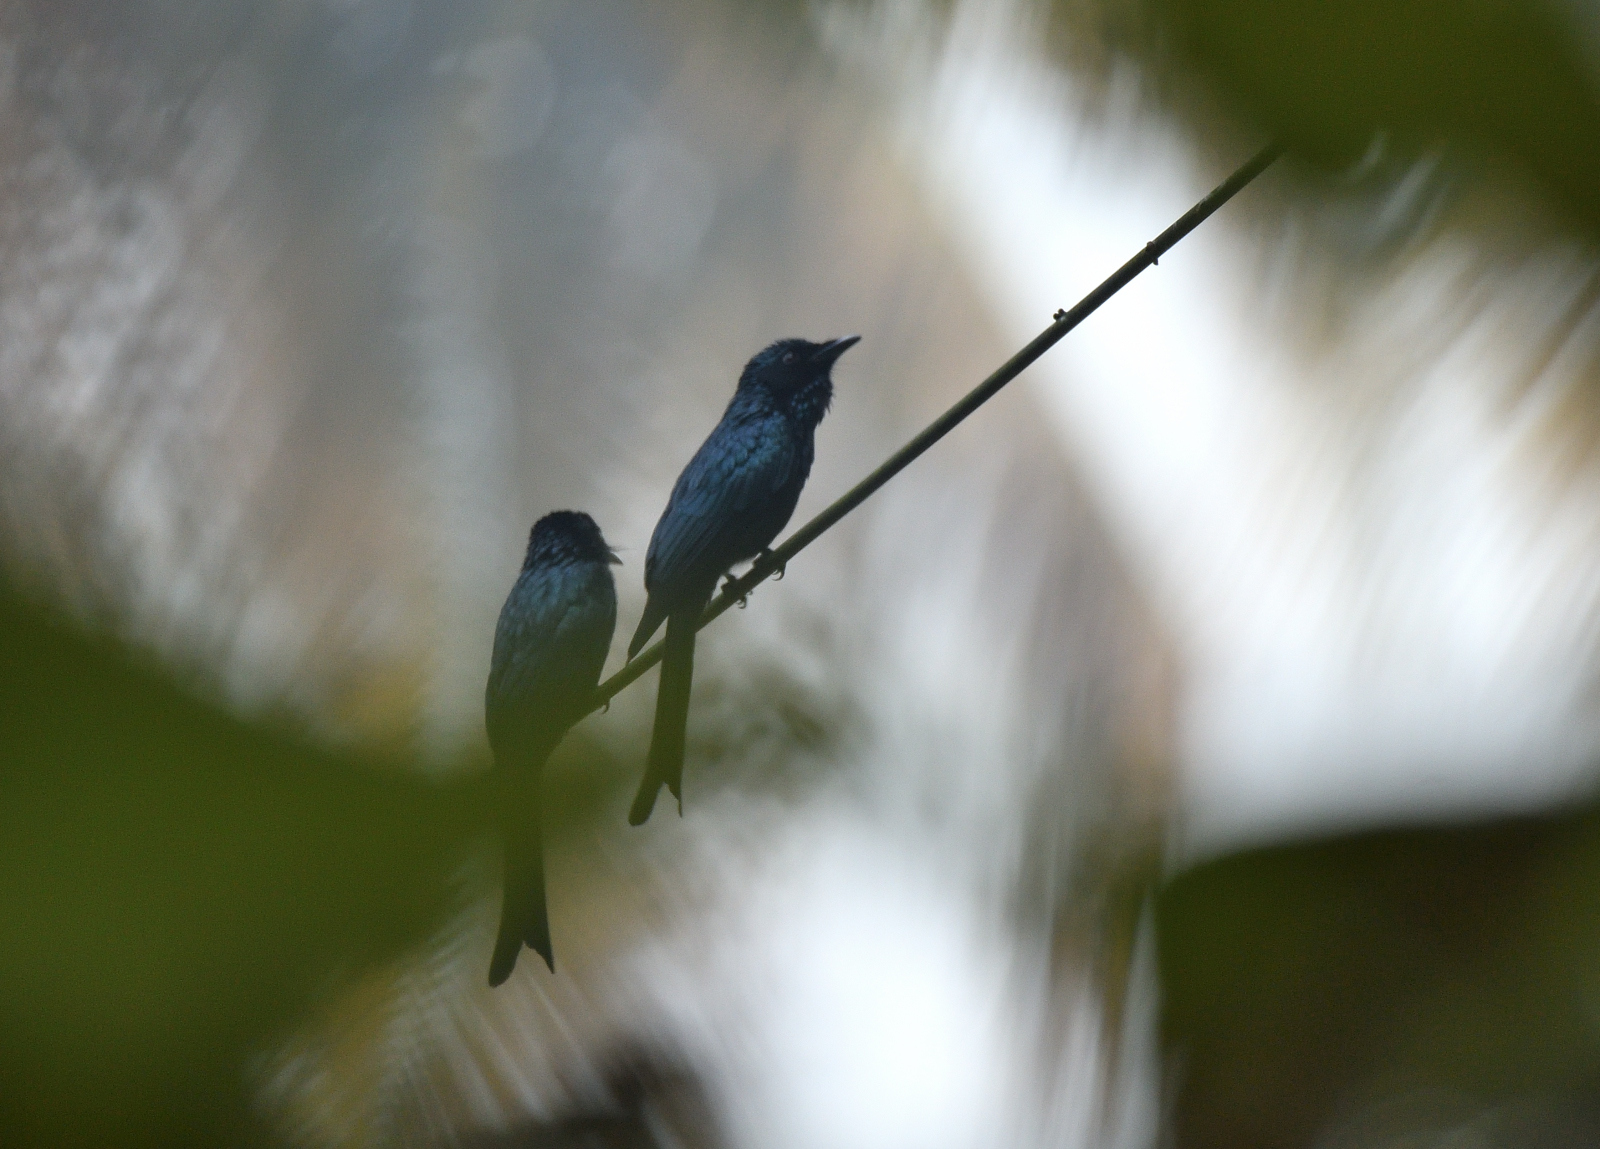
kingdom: Animalia
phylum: Chordata
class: Aves
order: Passeriformes
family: Dicruridae
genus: Dicrurus
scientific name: Dicrurus aeneus
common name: Bronzed drongo
